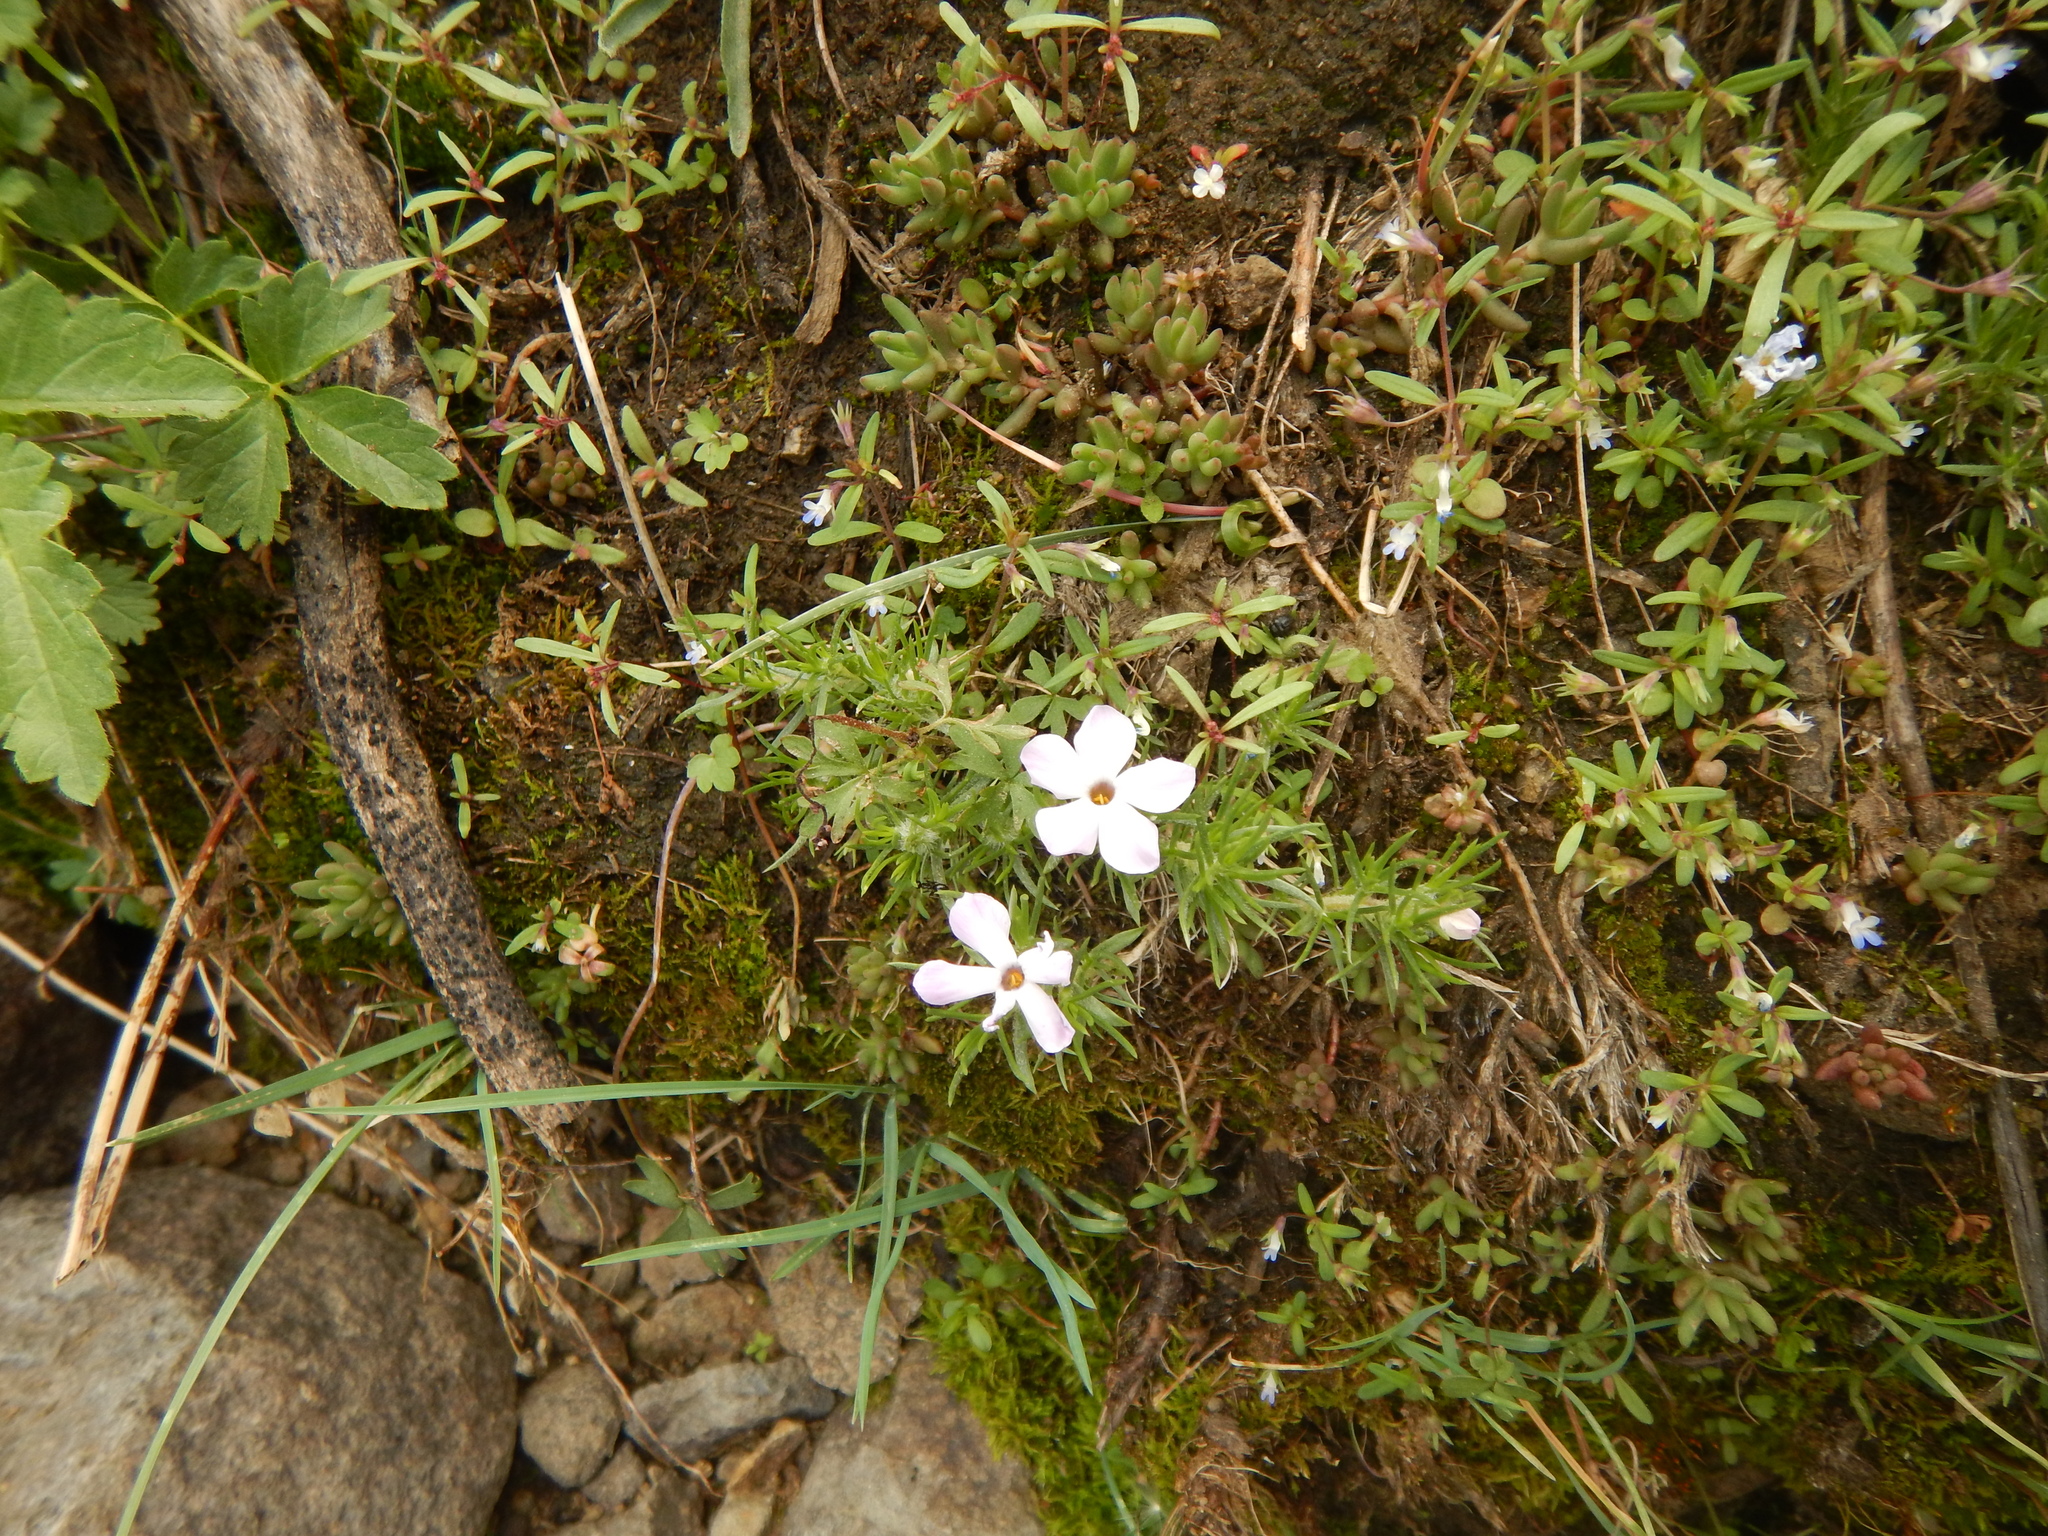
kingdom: Plantae
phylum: Tracheophyta
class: Magnoliopsida
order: Ericales
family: Polemoniaceae
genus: Phlox
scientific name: Phlox diffusa
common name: Mat phlox
